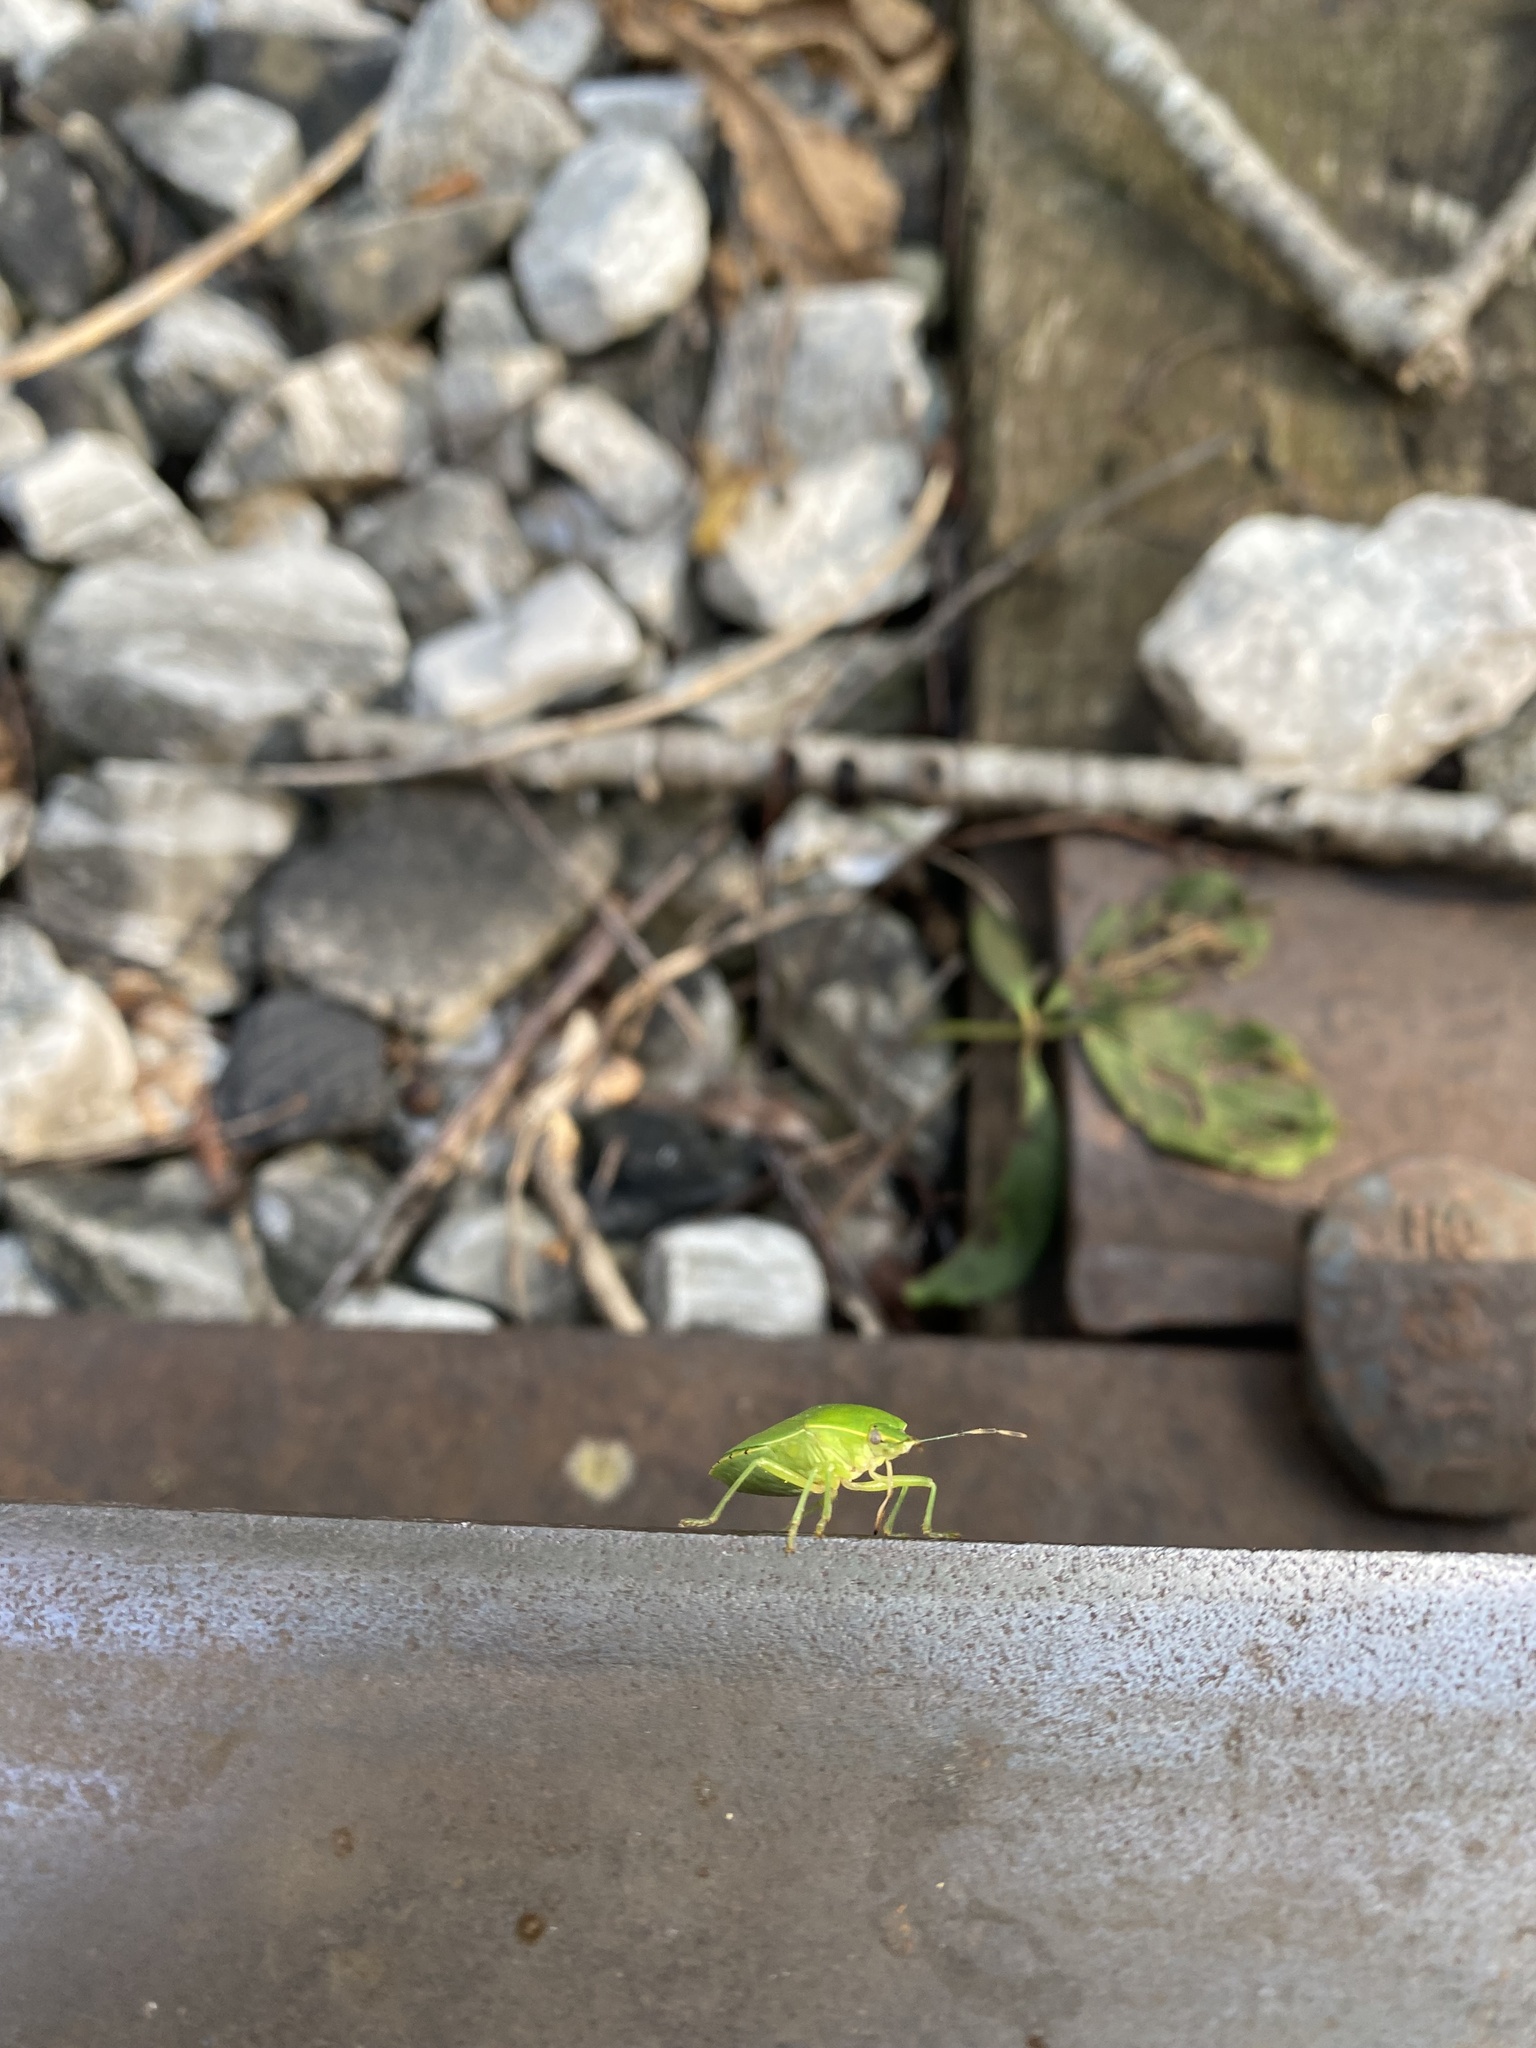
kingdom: Animalia
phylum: Arthropoda
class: Insecta
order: Hemiptera
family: Pentatomidae
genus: Chinavia
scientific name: Chinavia hilaris
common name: Green stink bug
